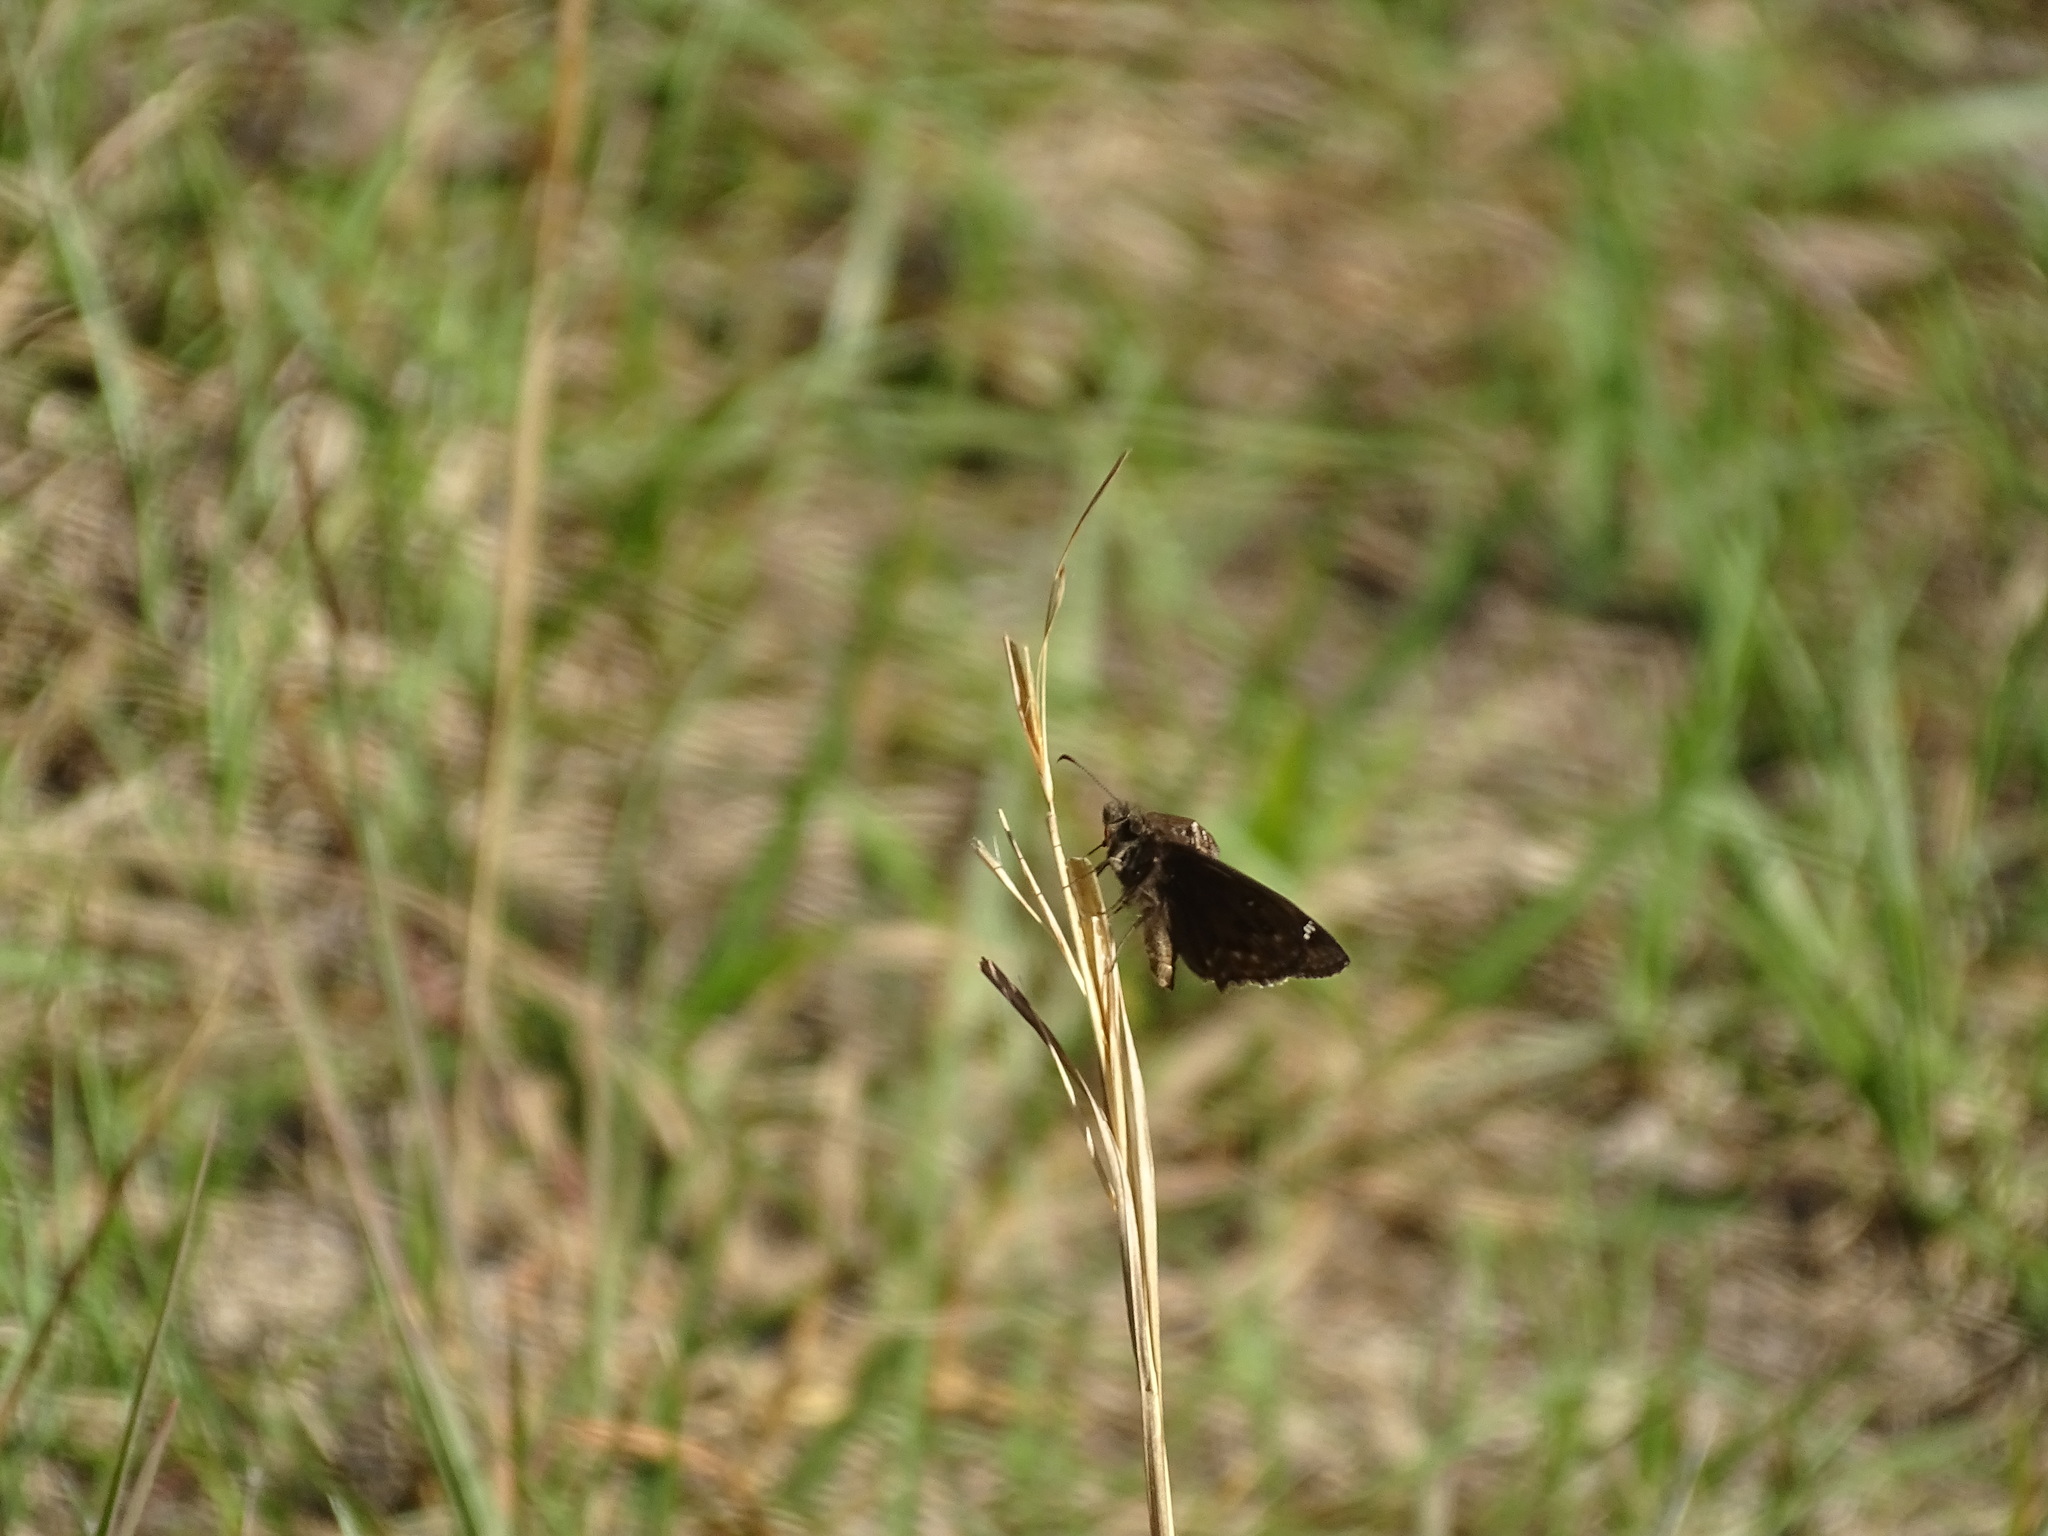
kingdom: Animalia
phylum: Arthropoda
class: Insecta
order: Lepidoptera
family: Hesperiidae
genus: Erynnis
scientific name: Erynnis juvenalis
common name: Juvenal's duskywing
